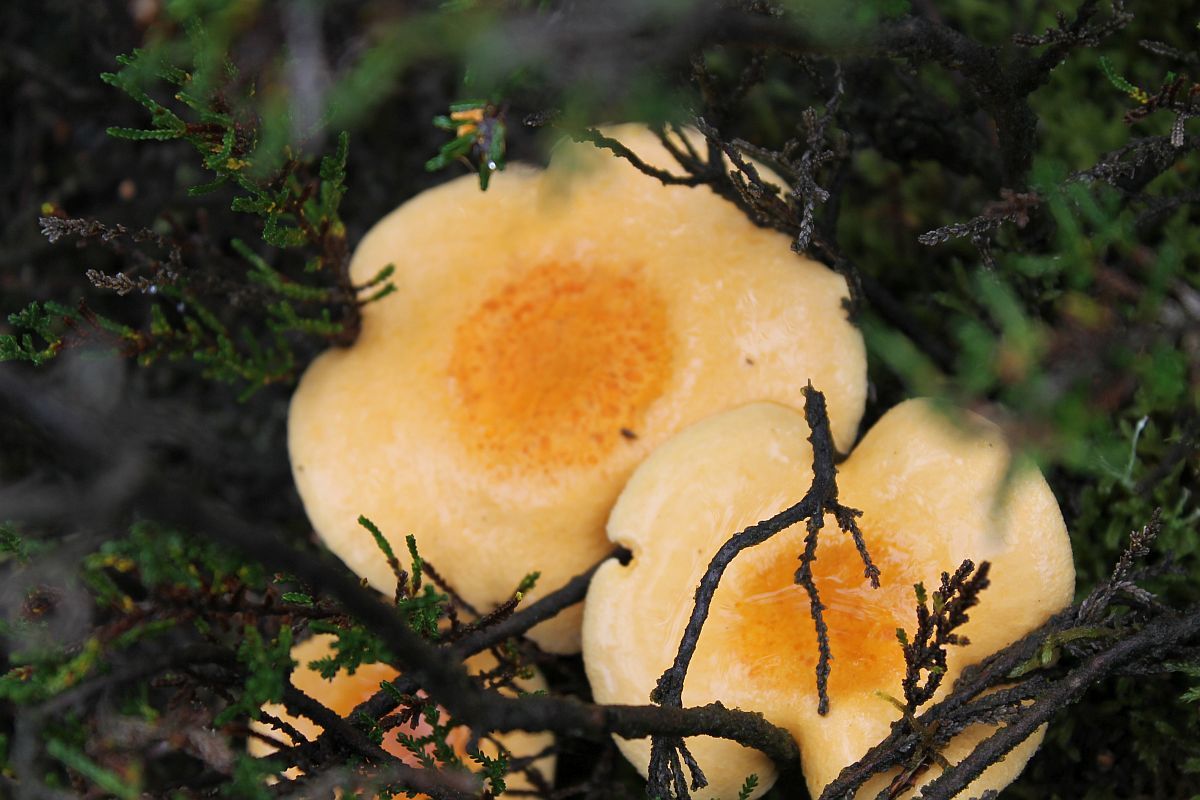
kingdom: Fungi
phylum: Basidiomycota
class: Agaricomycetes
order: Boletales
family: Hygrophoropsidaceae
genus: Hygrophoropsis
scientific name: Hygrophoropsis aurantiaca
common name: False chanterelle
